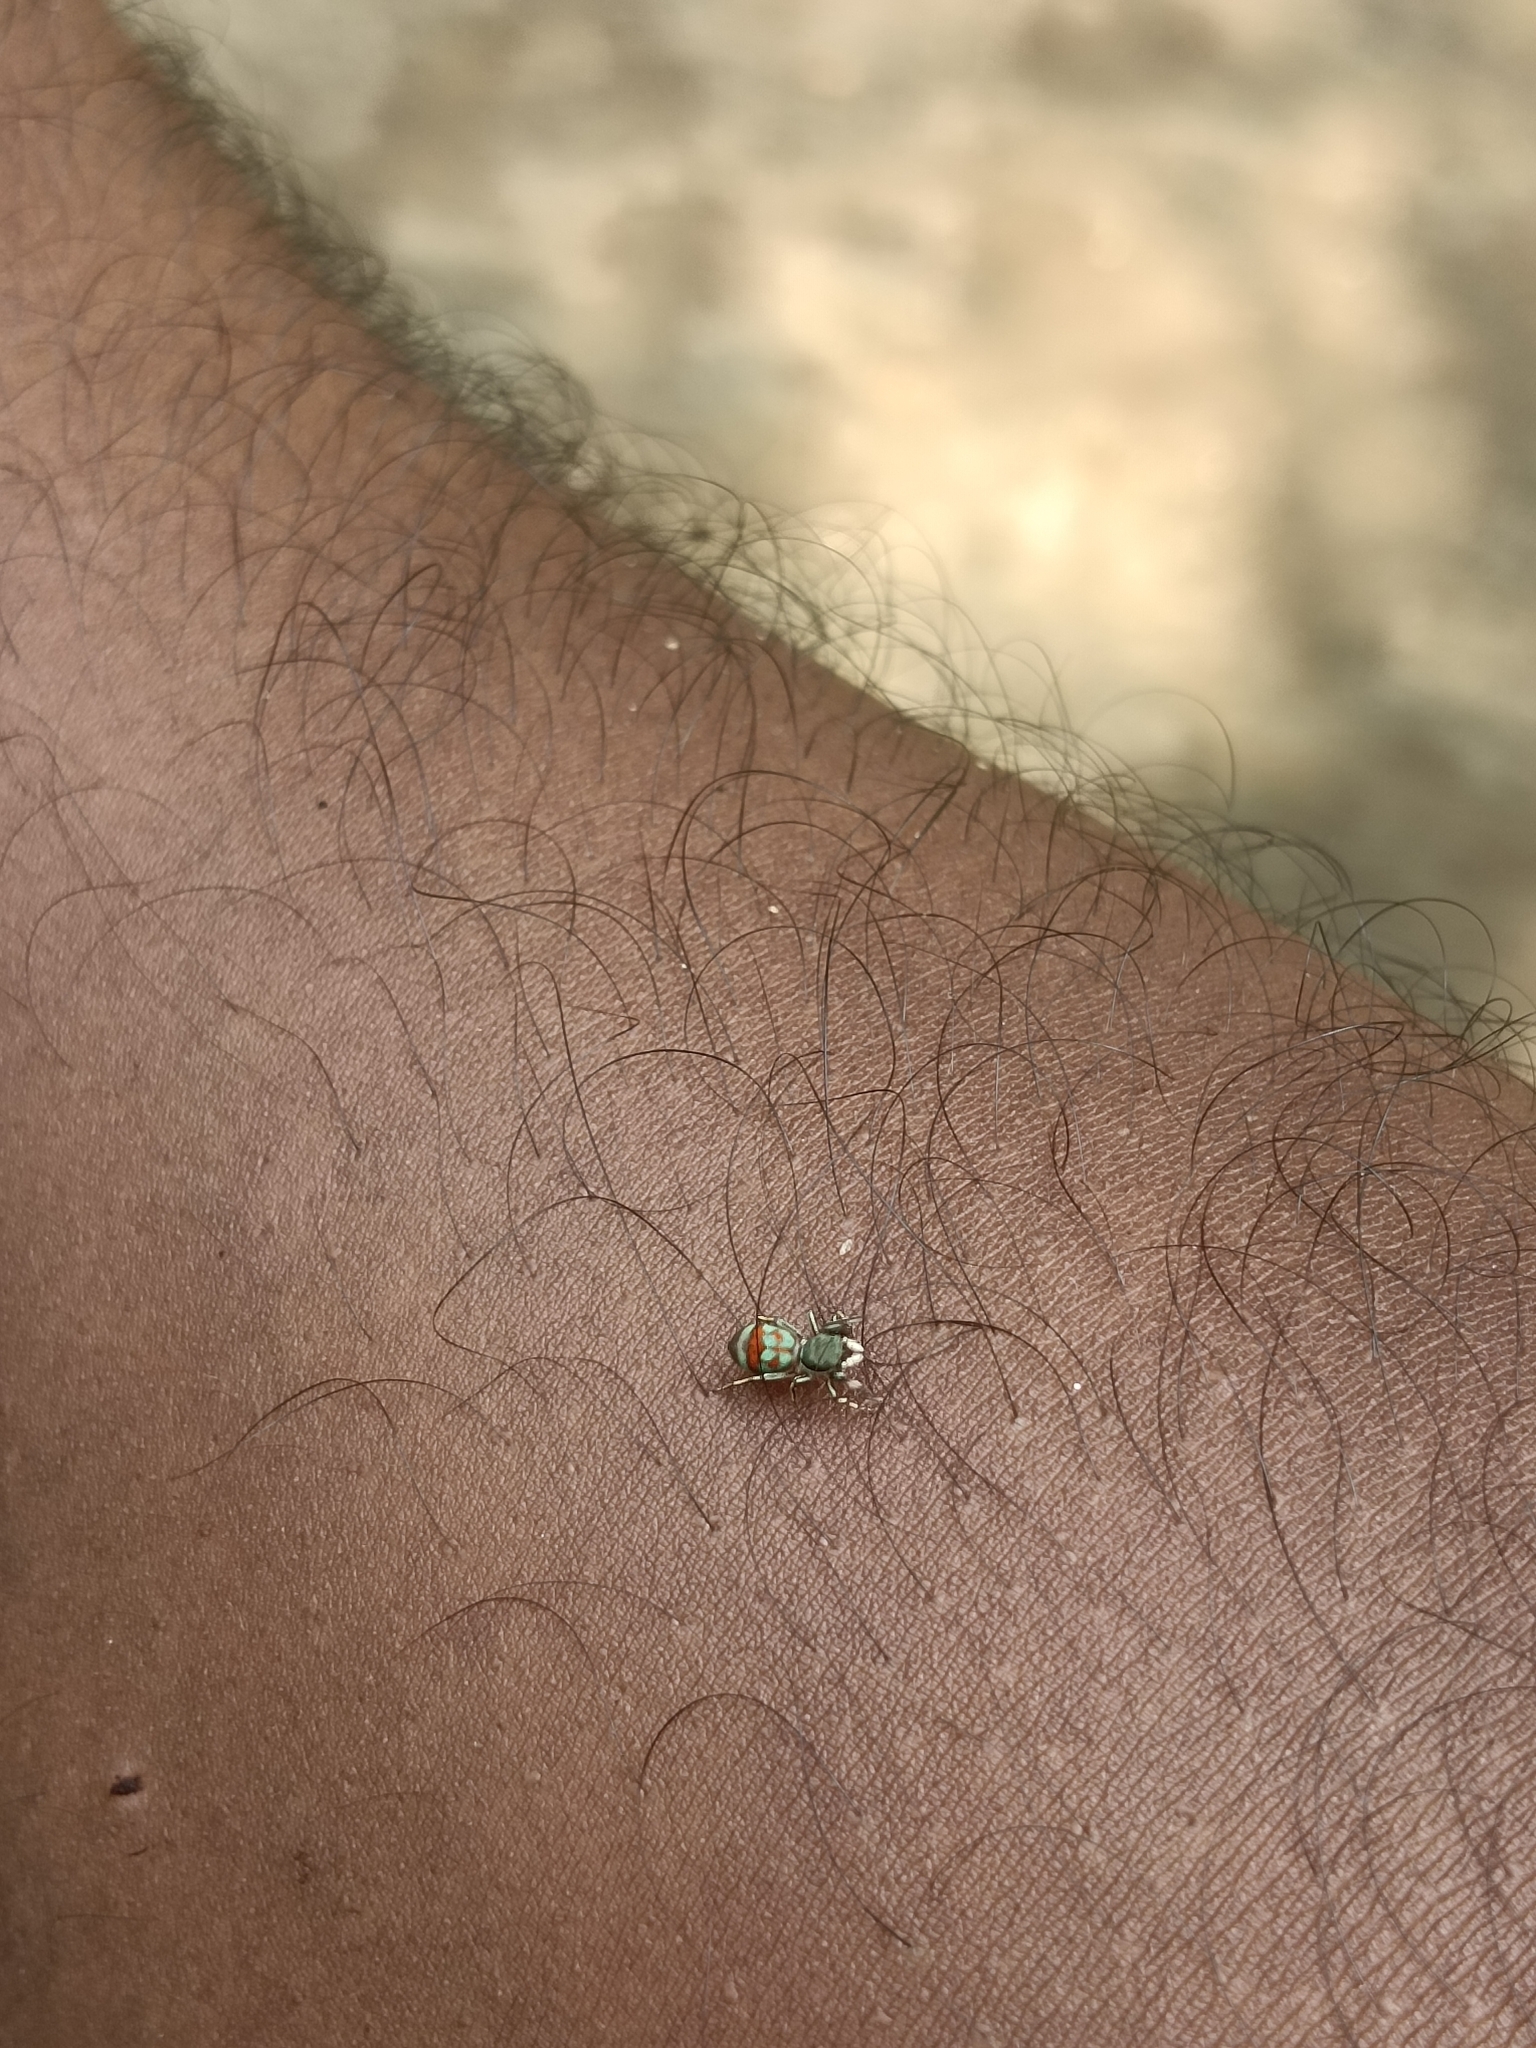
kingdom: Animalia
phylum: Arthropoda
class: Arachnida
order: Araneae
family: Salticidae
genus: Siler
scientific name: Siler semiglaucus
